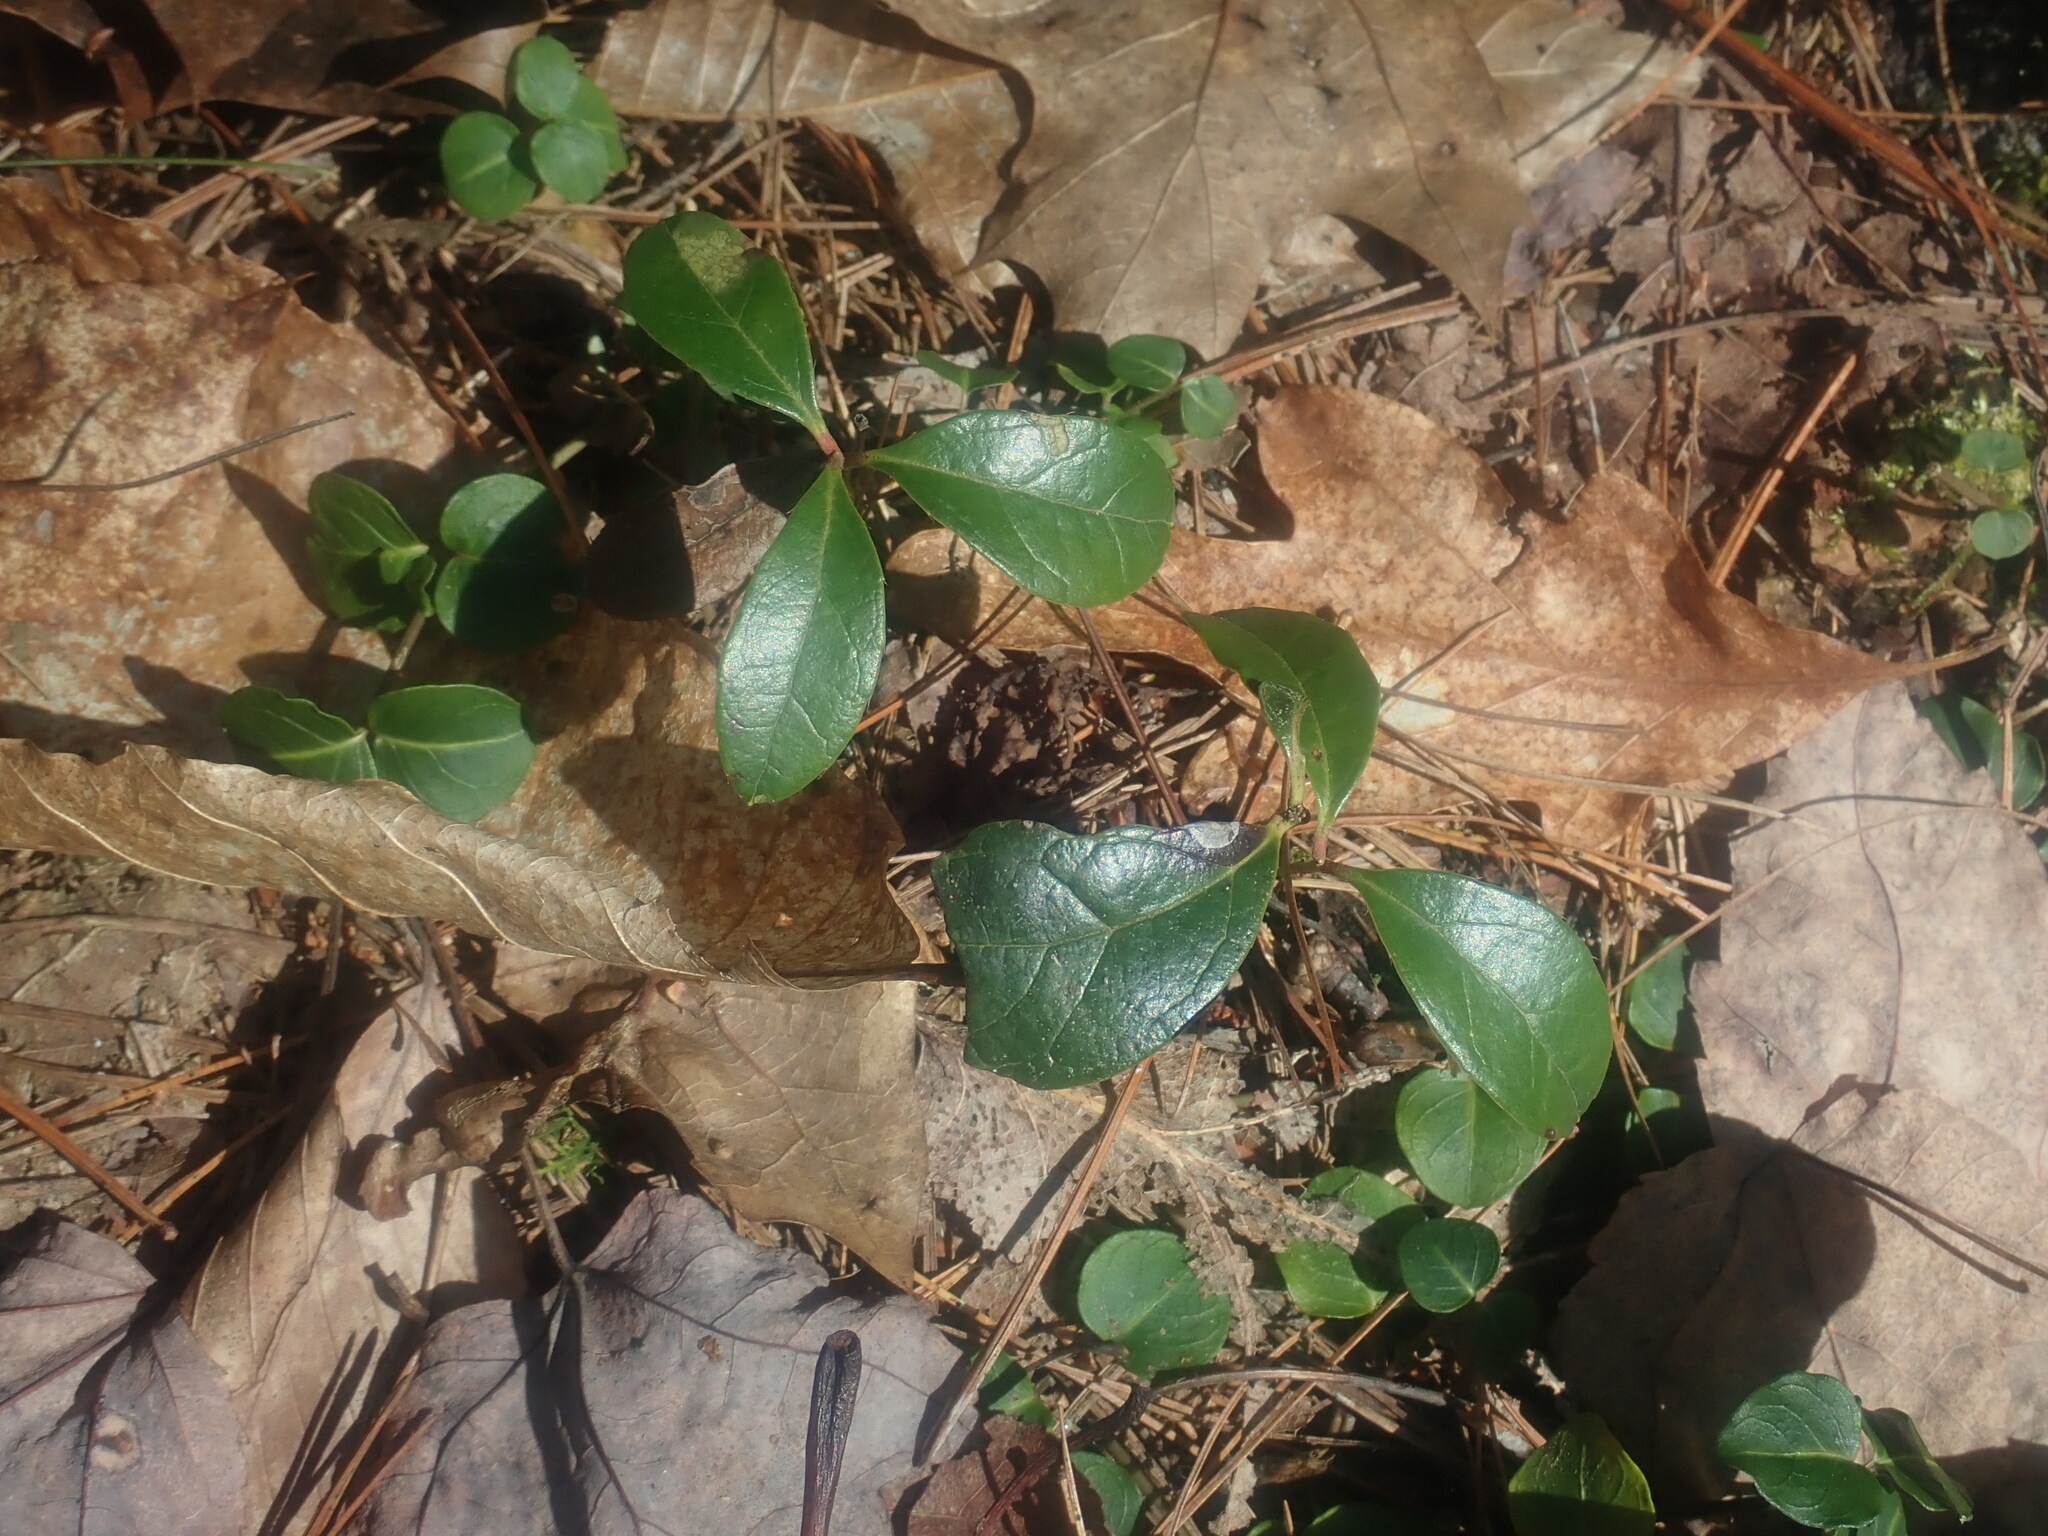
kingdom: Plantae
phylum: Tracheophyta
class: Magnoliopsida
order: Ericales
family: Ericaceae
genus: Gaultheria
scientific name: Gaultheria procumbens
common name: Checkerberry
